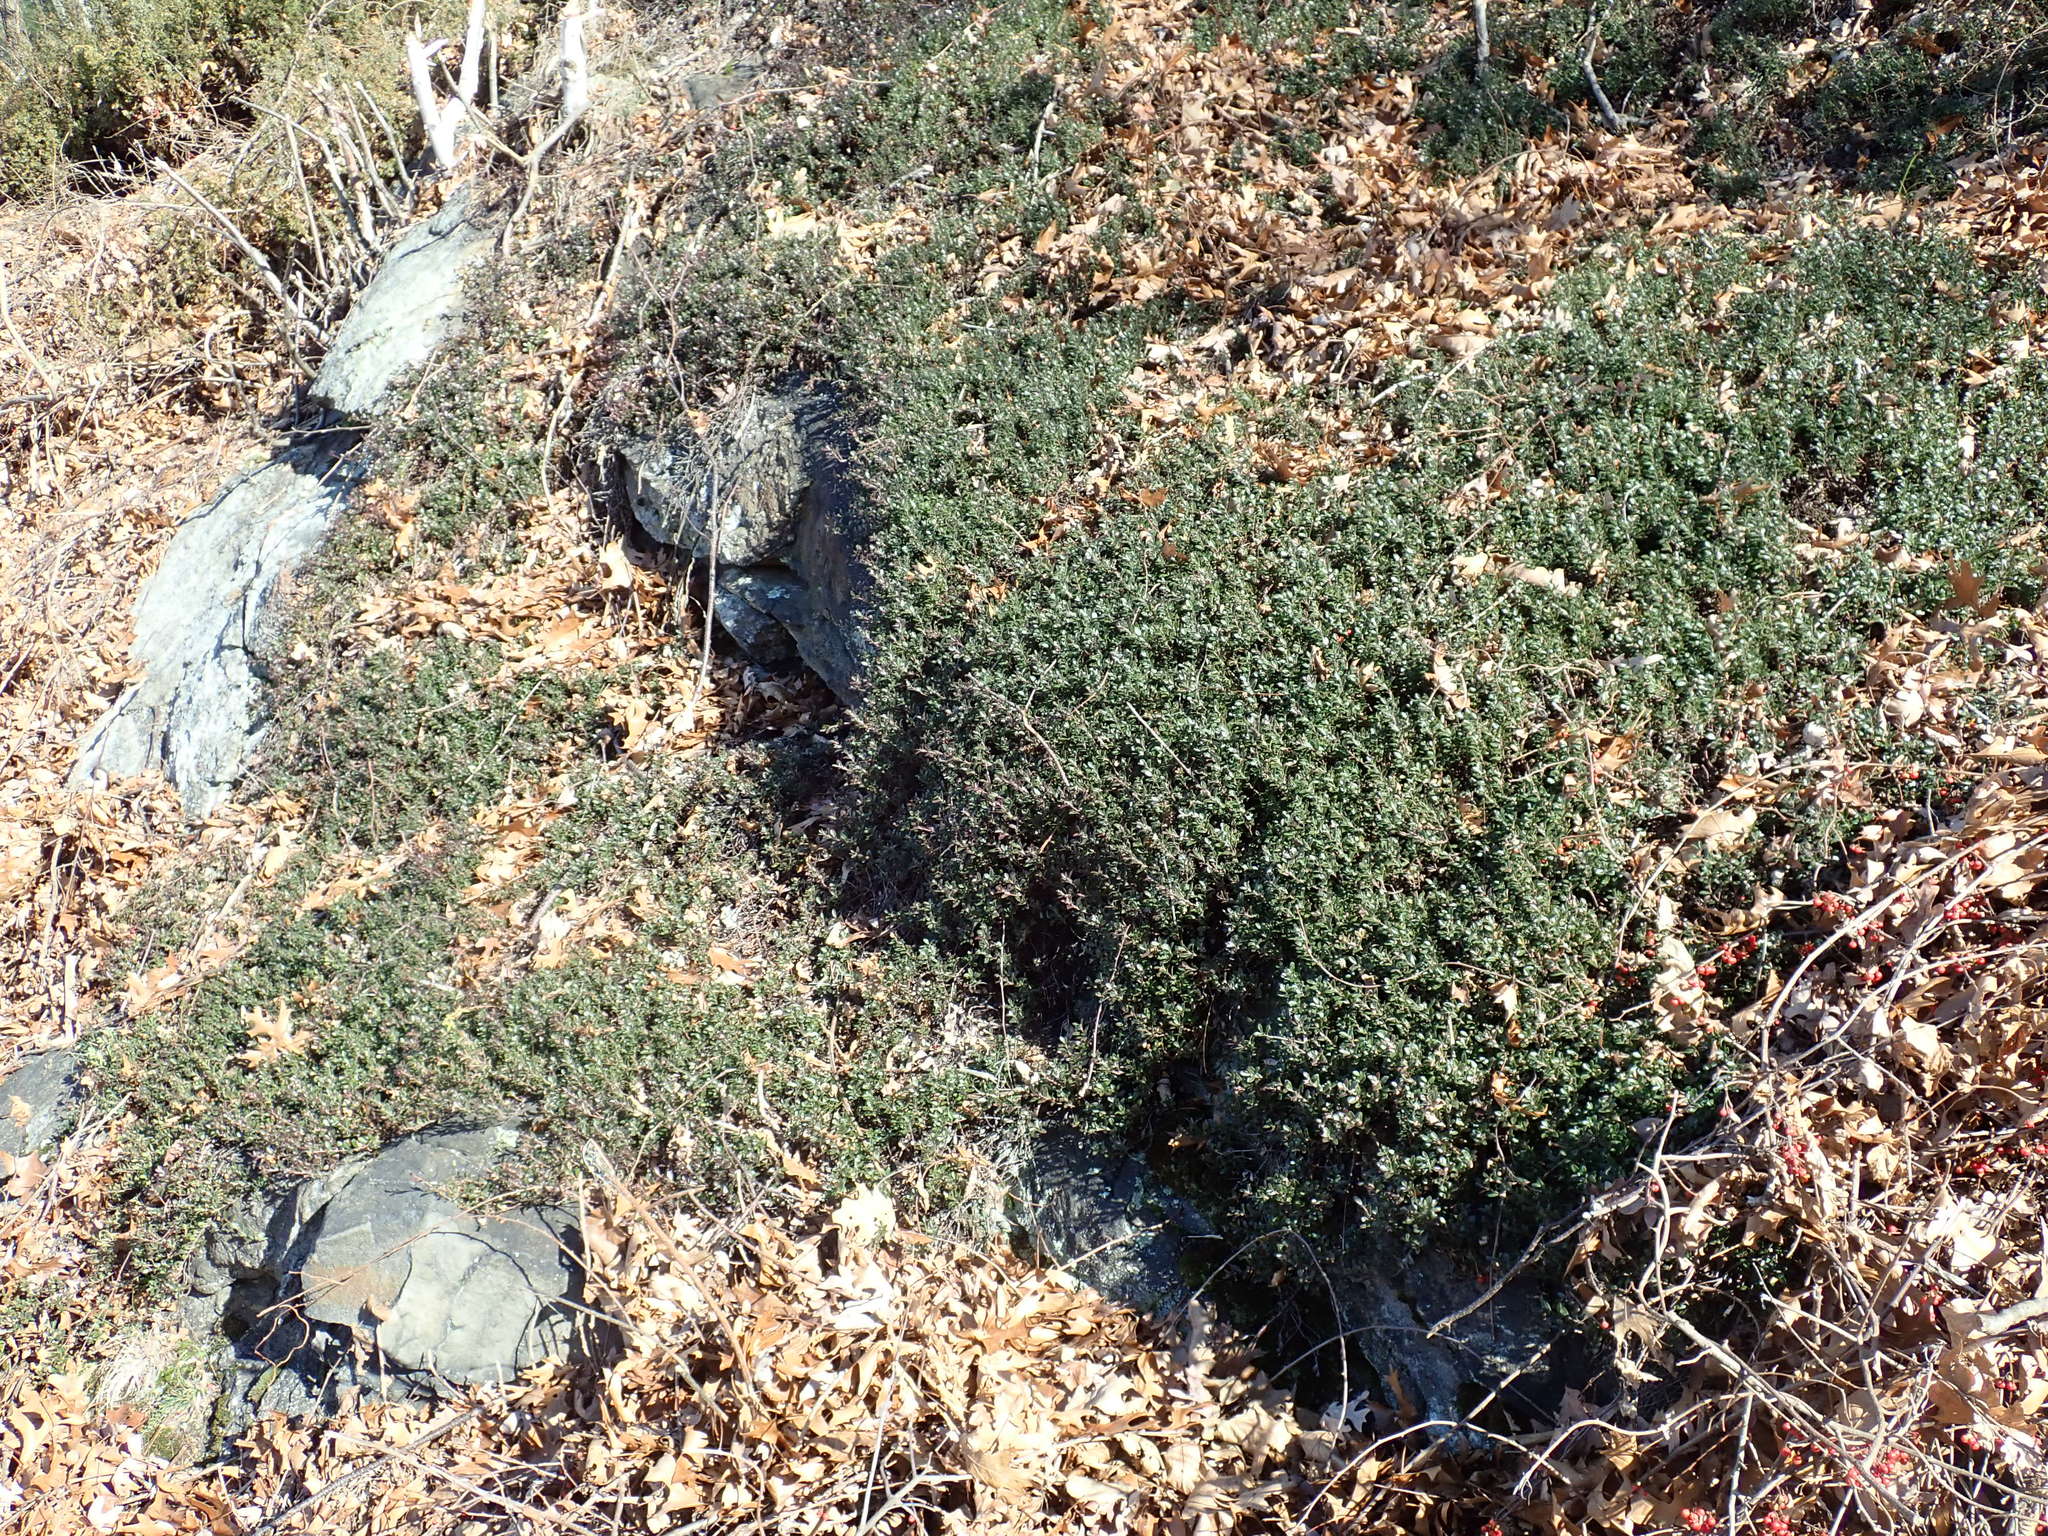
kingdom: Plantae
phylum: Tracheophyta
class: Magnoliopsida
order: Ericales
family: Ericaceae
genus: Arctostaphylos
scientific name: Arctostaphylos uva-ursi
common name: Bearberry
